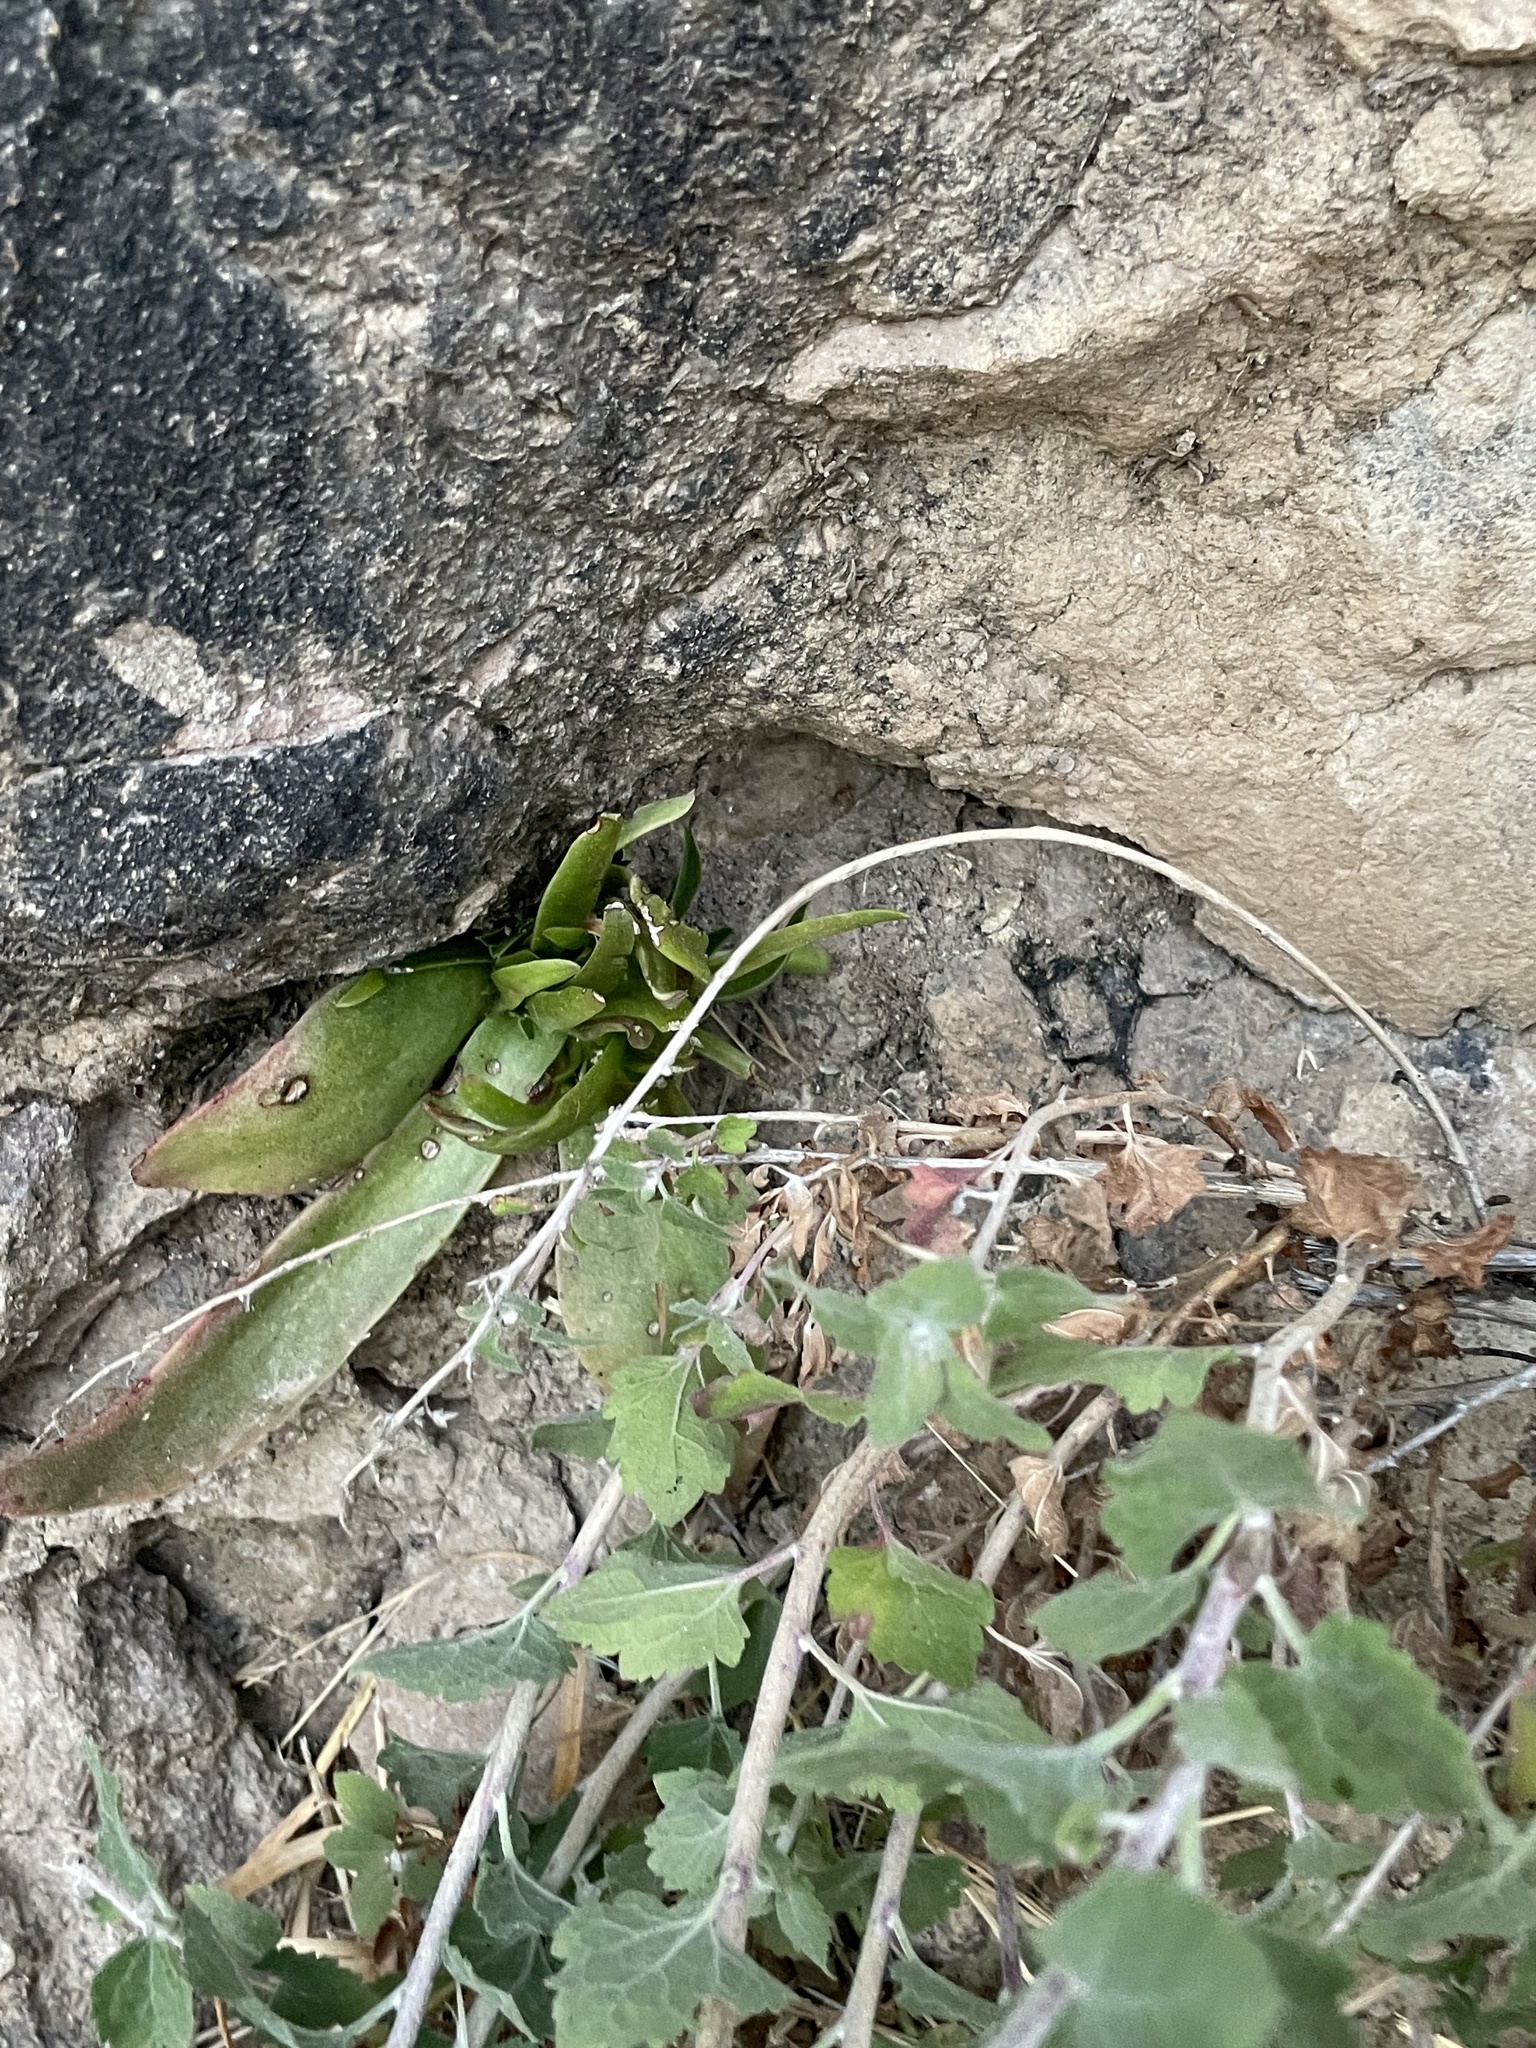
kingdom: Plantae
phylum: Tracheophyta
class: Magnoliopsida
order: Saxifragales
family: Crassulaceae
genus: Dudleya
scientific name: Dudleya lanceolata
